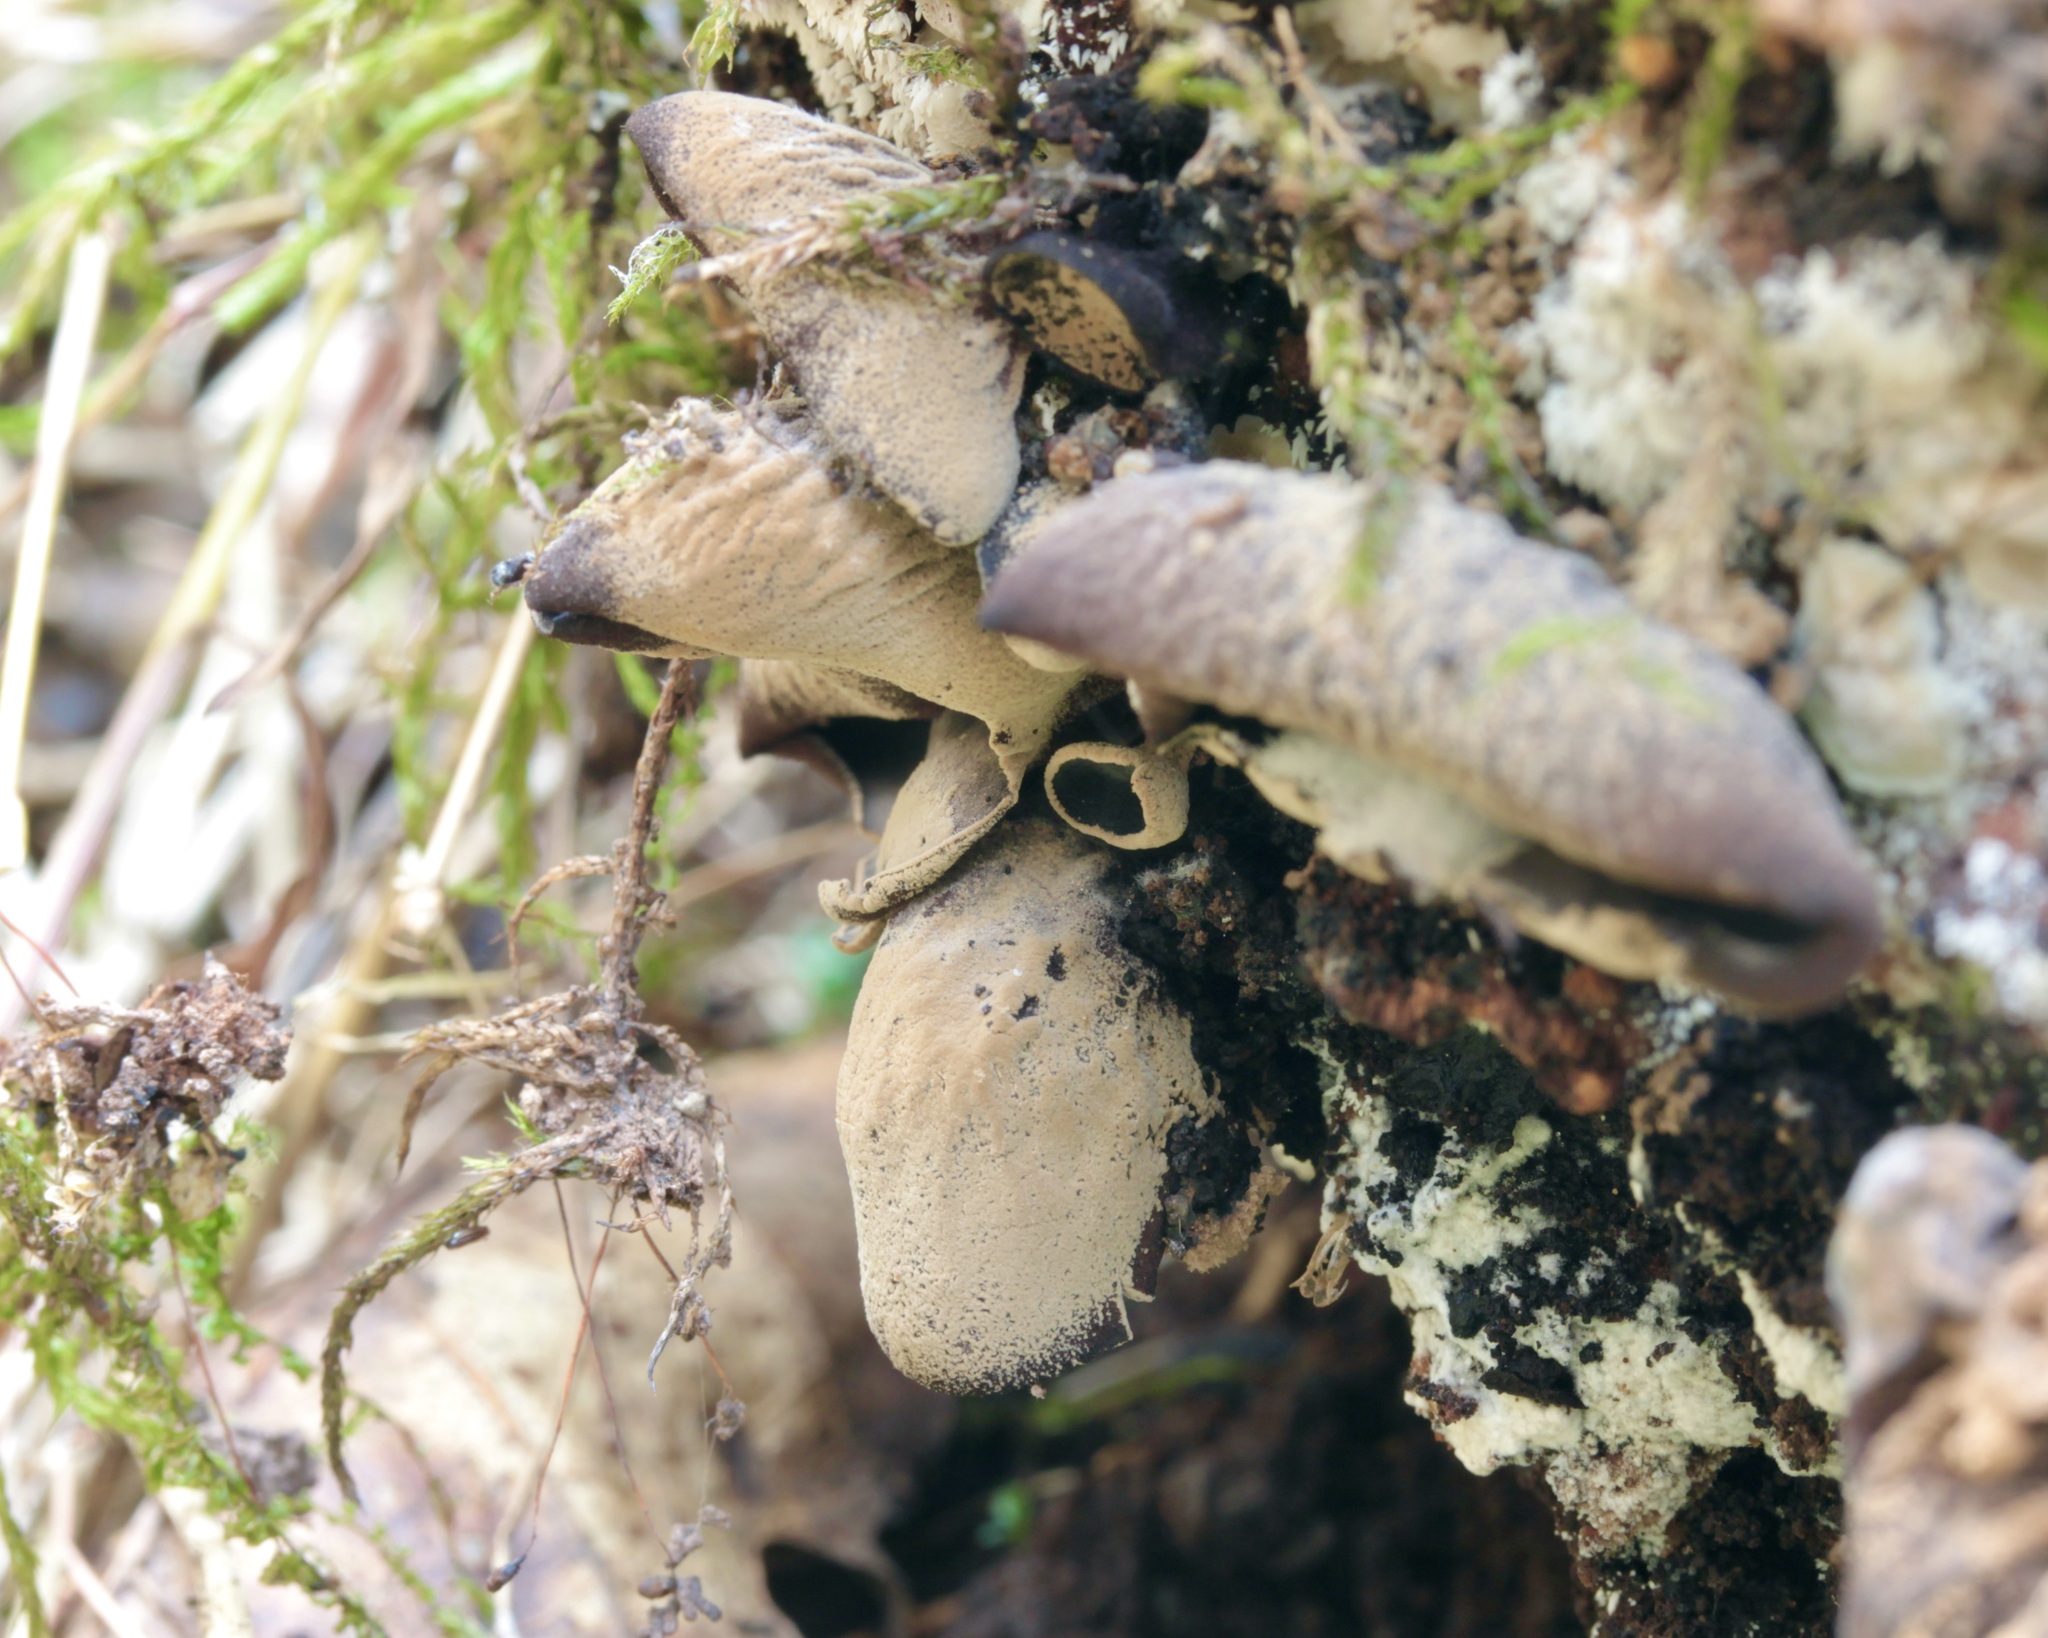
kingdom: Fungi
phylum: Ascomycota
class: Leotiomycetes
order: Helotiales
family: Cordieritidaceae
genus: Diplocarpa
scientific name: Diplocarpa irregularis
